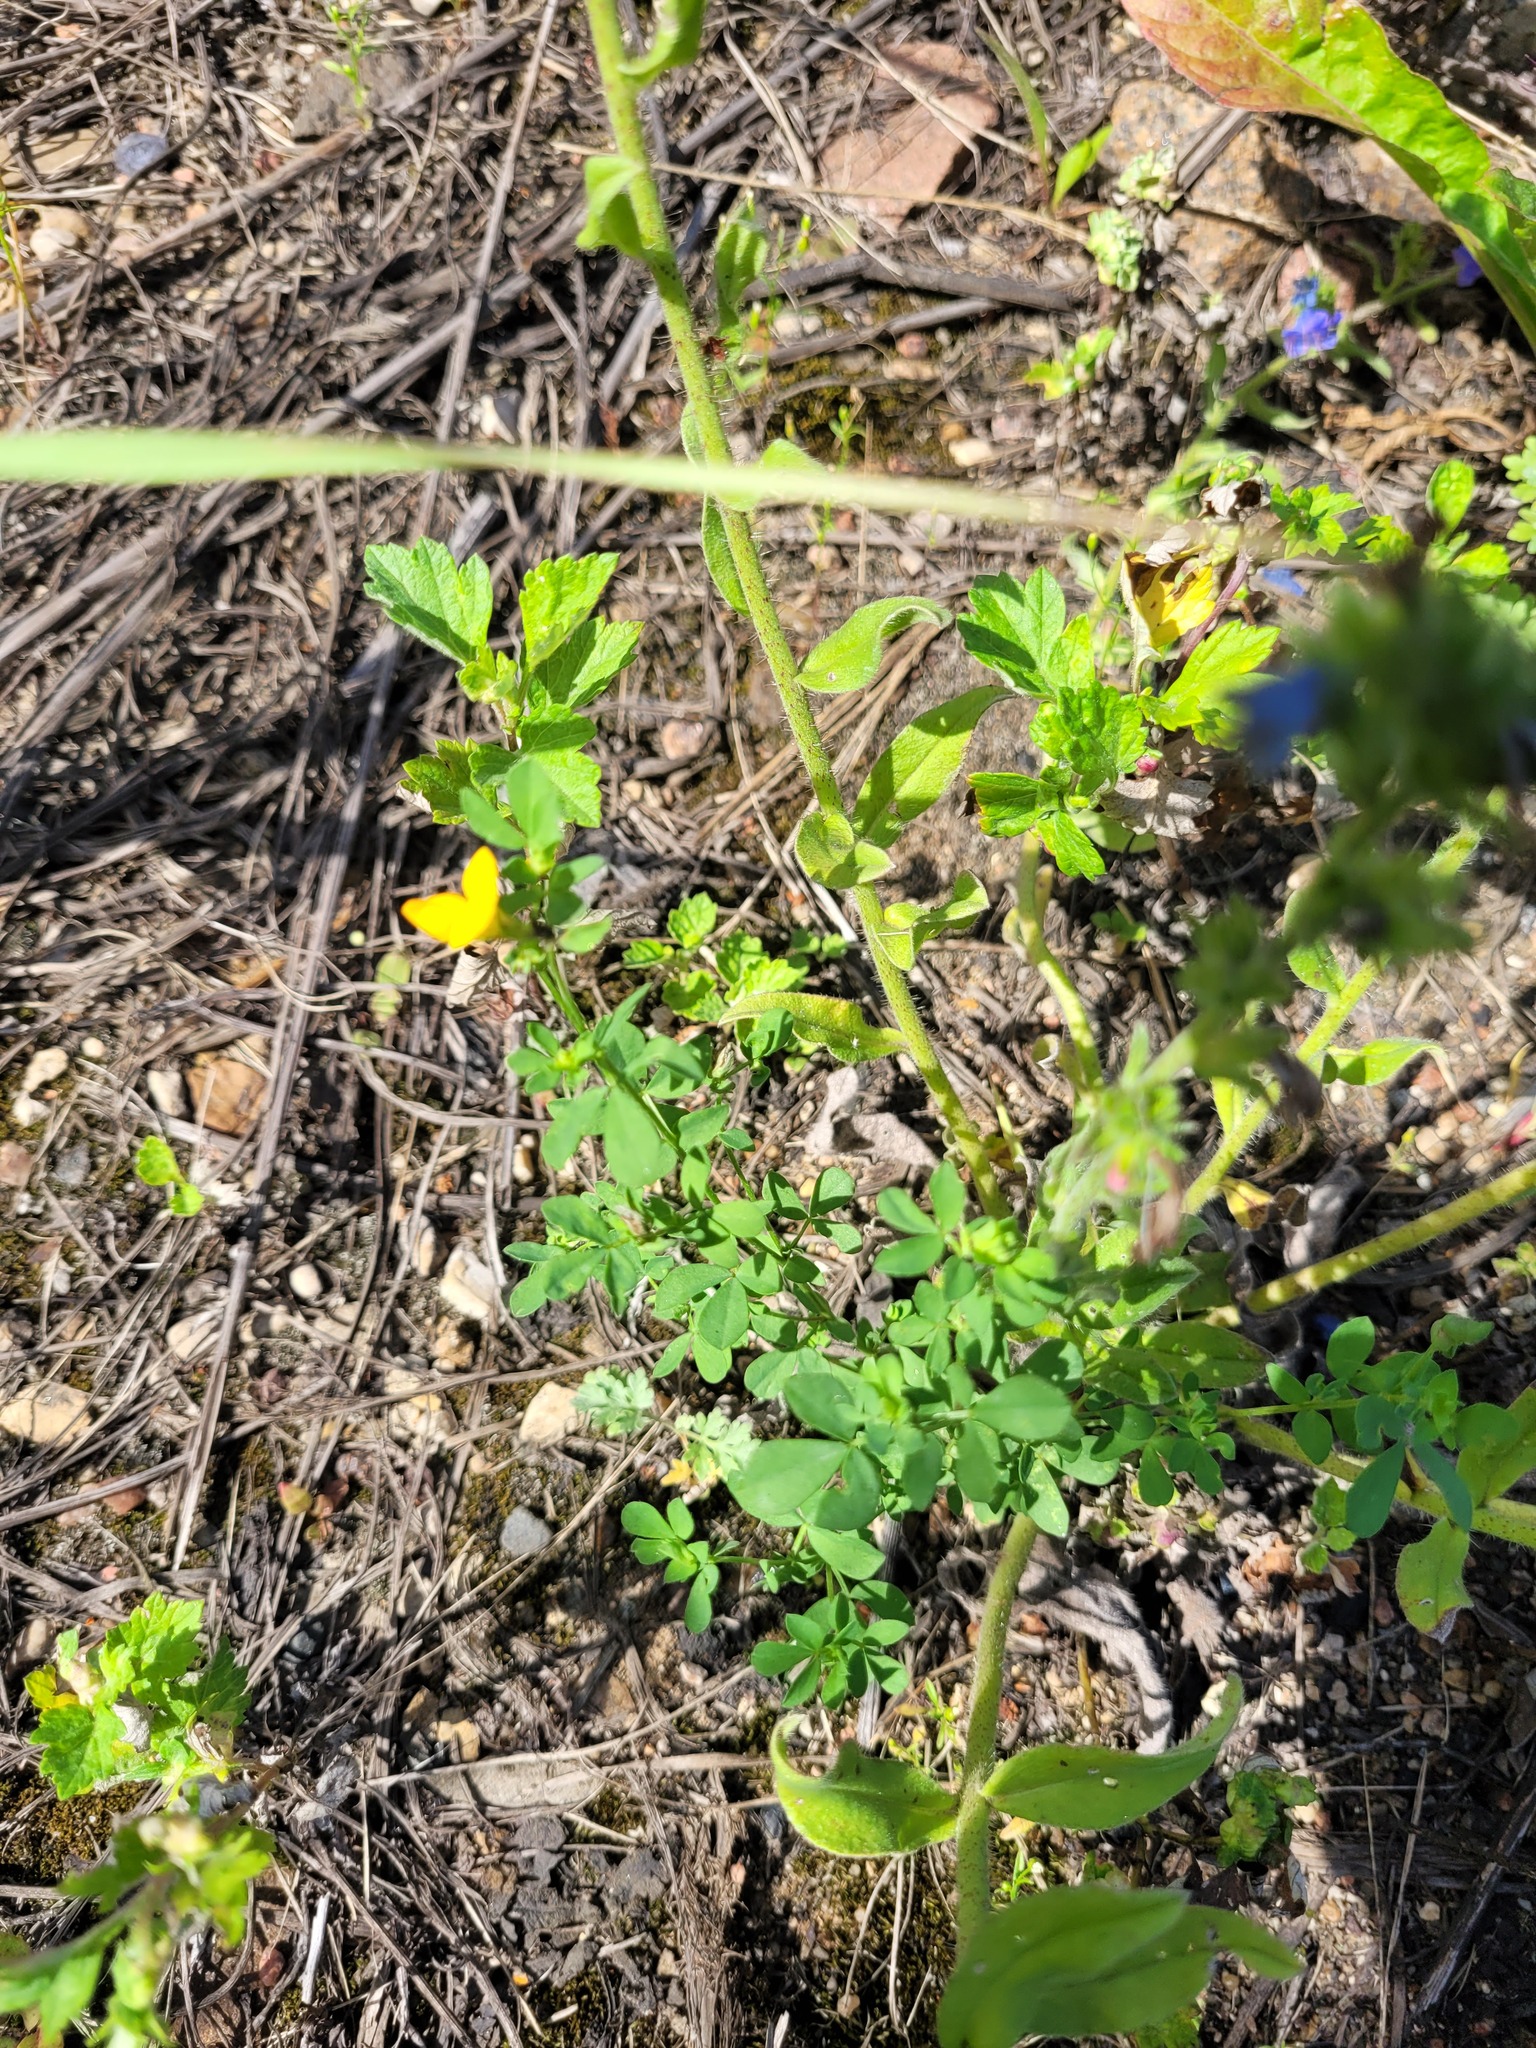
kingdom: Plantae
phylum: Tracheophyta
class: Magnoliopsida
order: Fabales
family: Fabaceae
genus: Lotus
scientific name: Lotus corniculatus
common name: Common bird's-foot-trefoil
